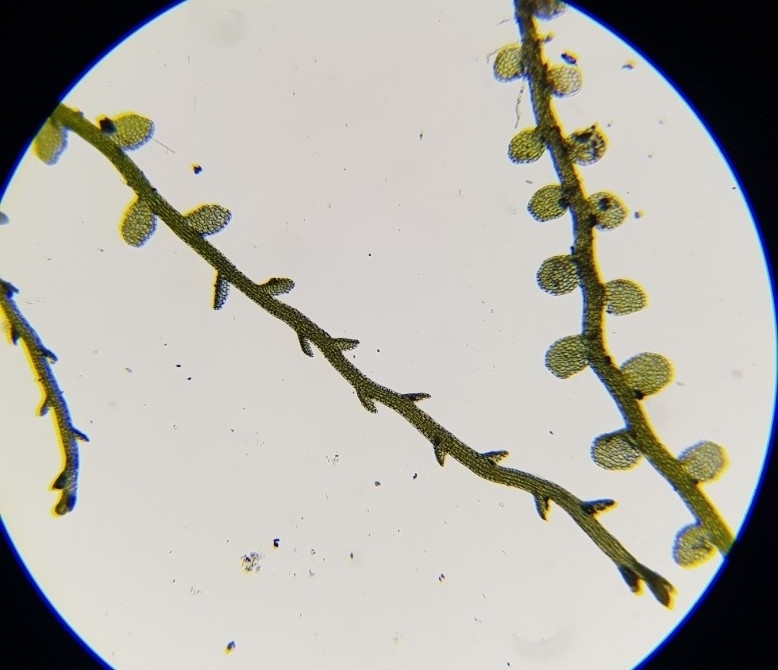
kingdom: Plantae
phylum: Marchantiophyta
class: Jungermanniopsida
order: Jungermanniales
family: Solenostomataceae
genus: Solenostoma
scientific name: Solenostoma gracillimum
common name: Crenulated flapwort
